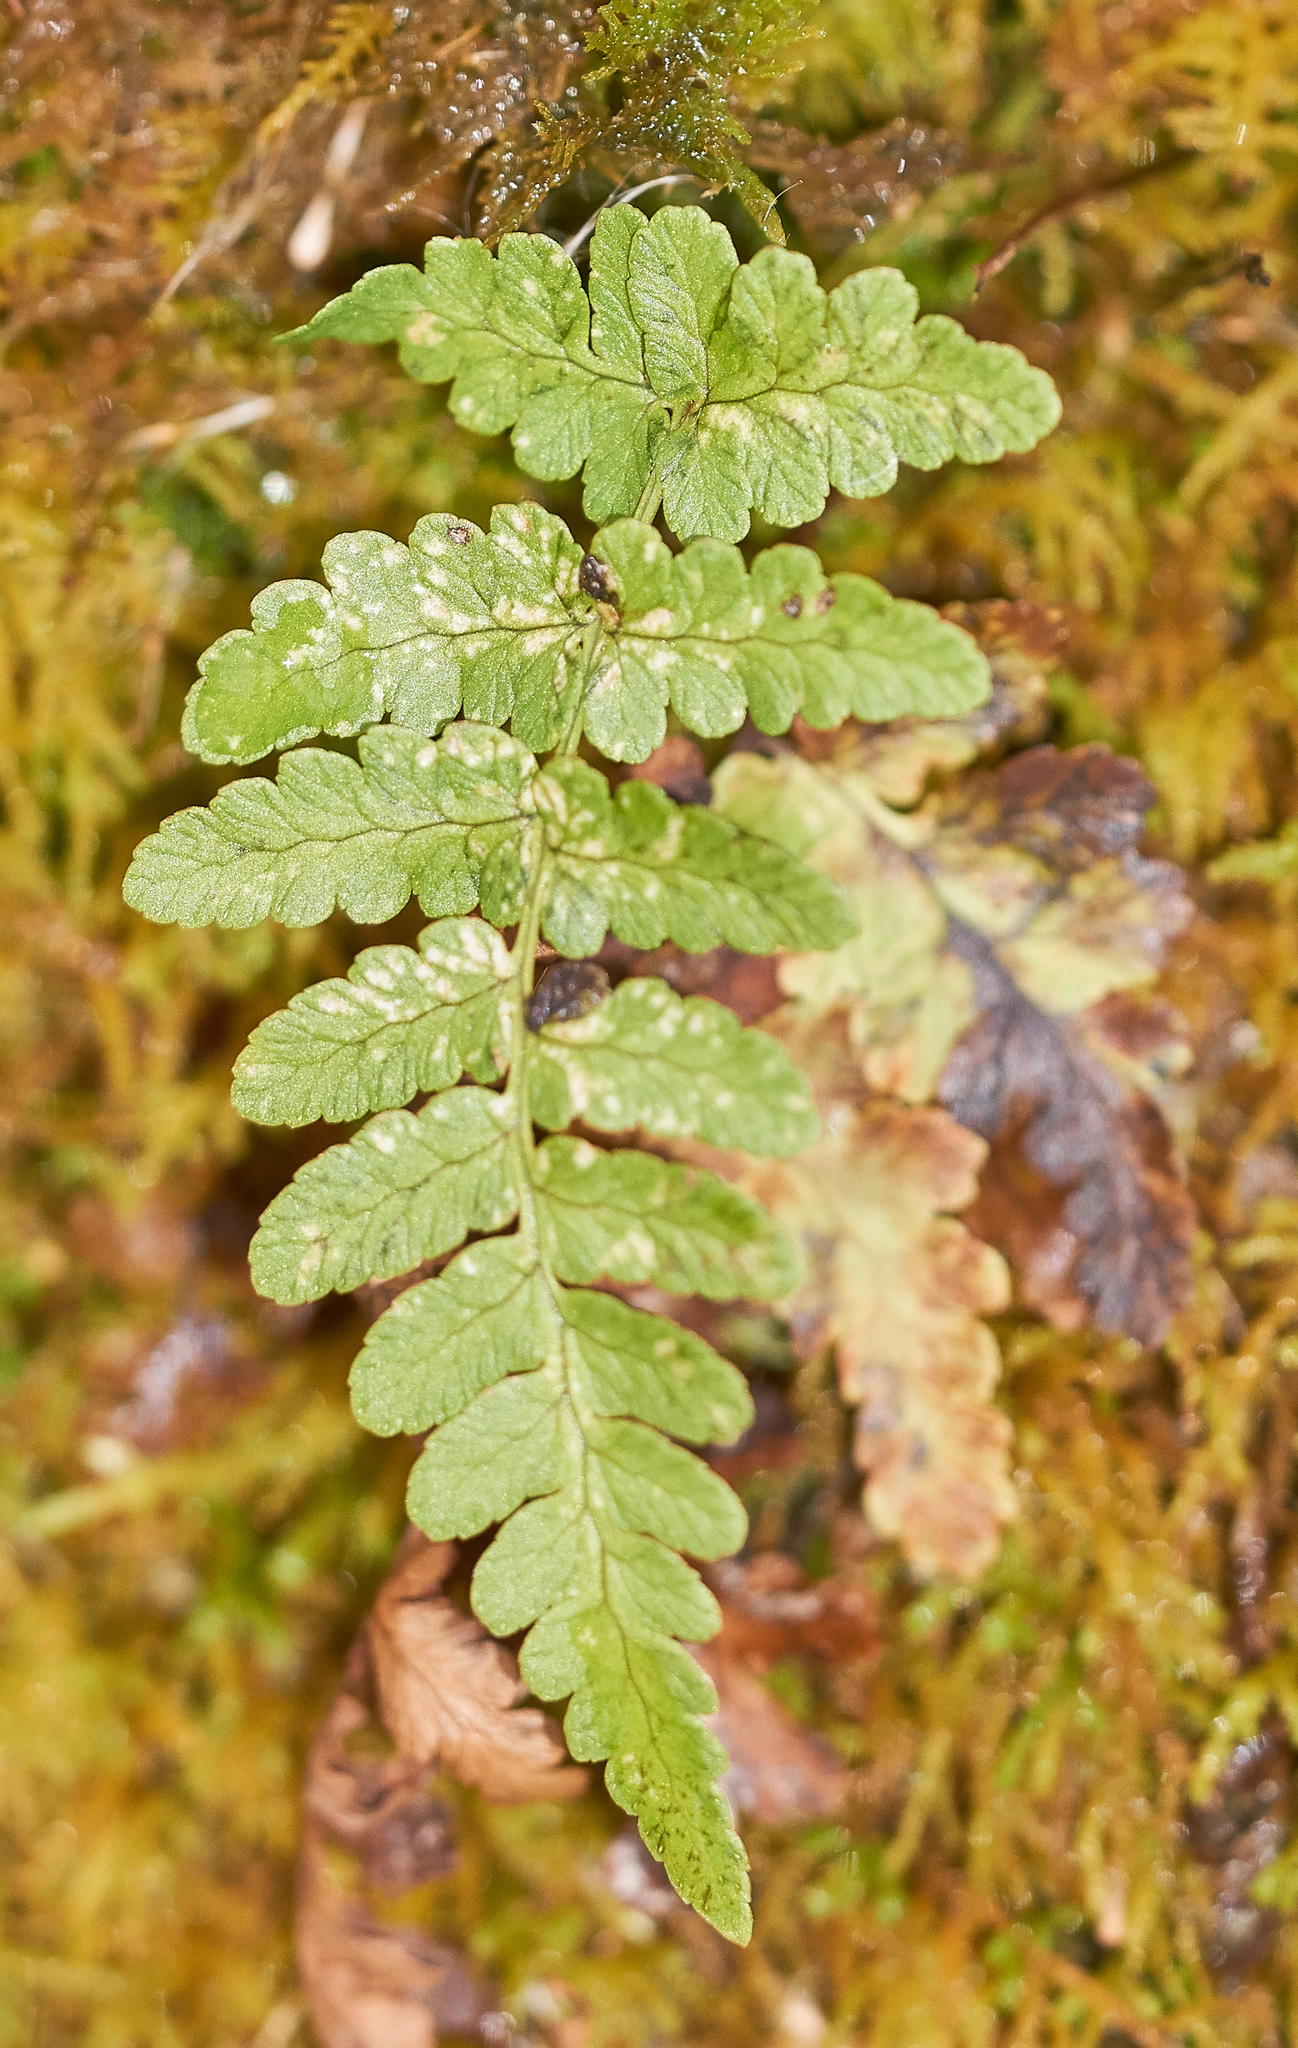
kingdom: Plantae
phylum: Tracheophyta
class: Polypodiopsida
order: Polypodiales
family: Dryopteridaceae
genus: Dryopteris
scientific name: Dryopteris marginalis
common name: Marginal wood fern
